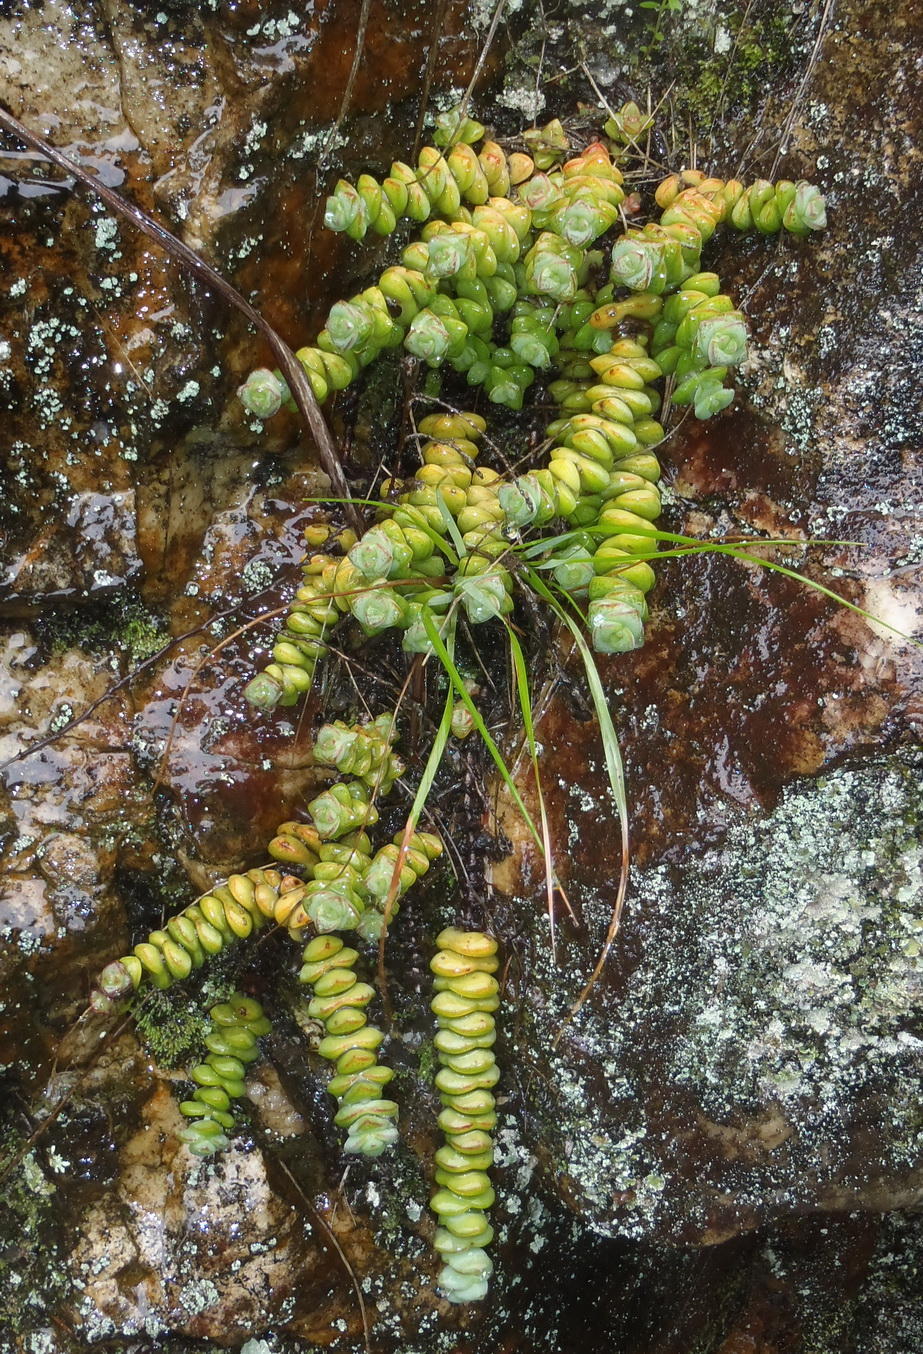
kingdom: Plantae
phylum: Tracheophyta
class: Magnoliopsida
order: Saxifragales
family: Crassulaceae
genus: Crassula
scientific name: Crassula perforata
